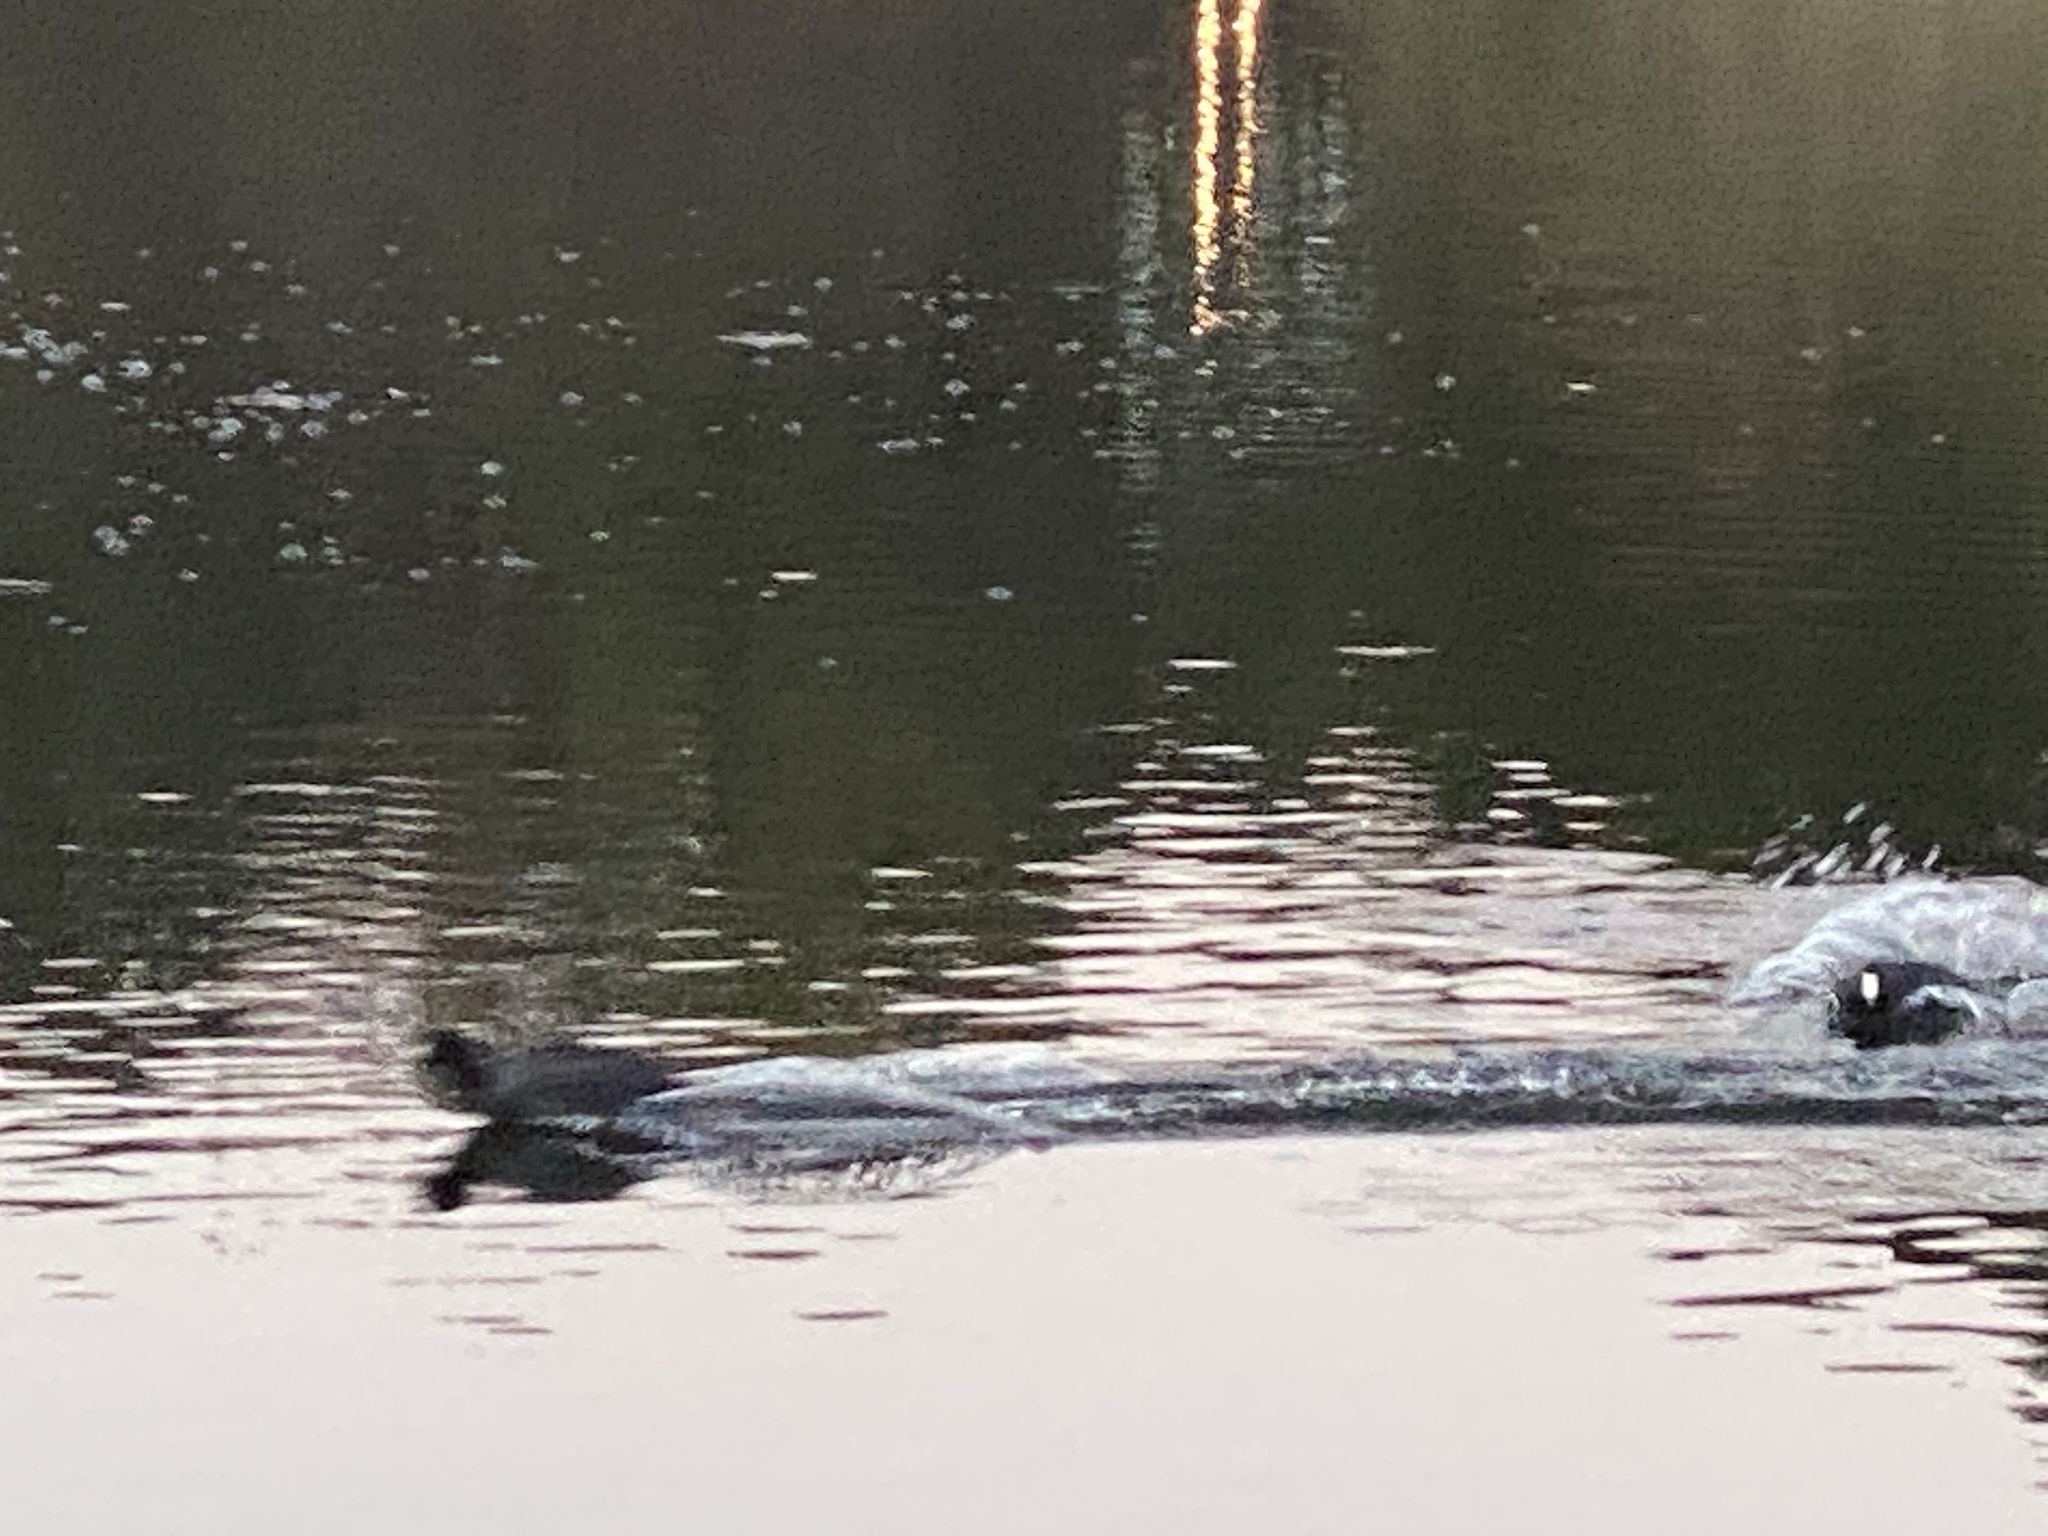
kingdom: Animalia
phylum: Chordata
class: Aves
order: Gruiformes
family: Rallidae
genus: Fulica
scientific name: Fulica americana
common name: American coot
